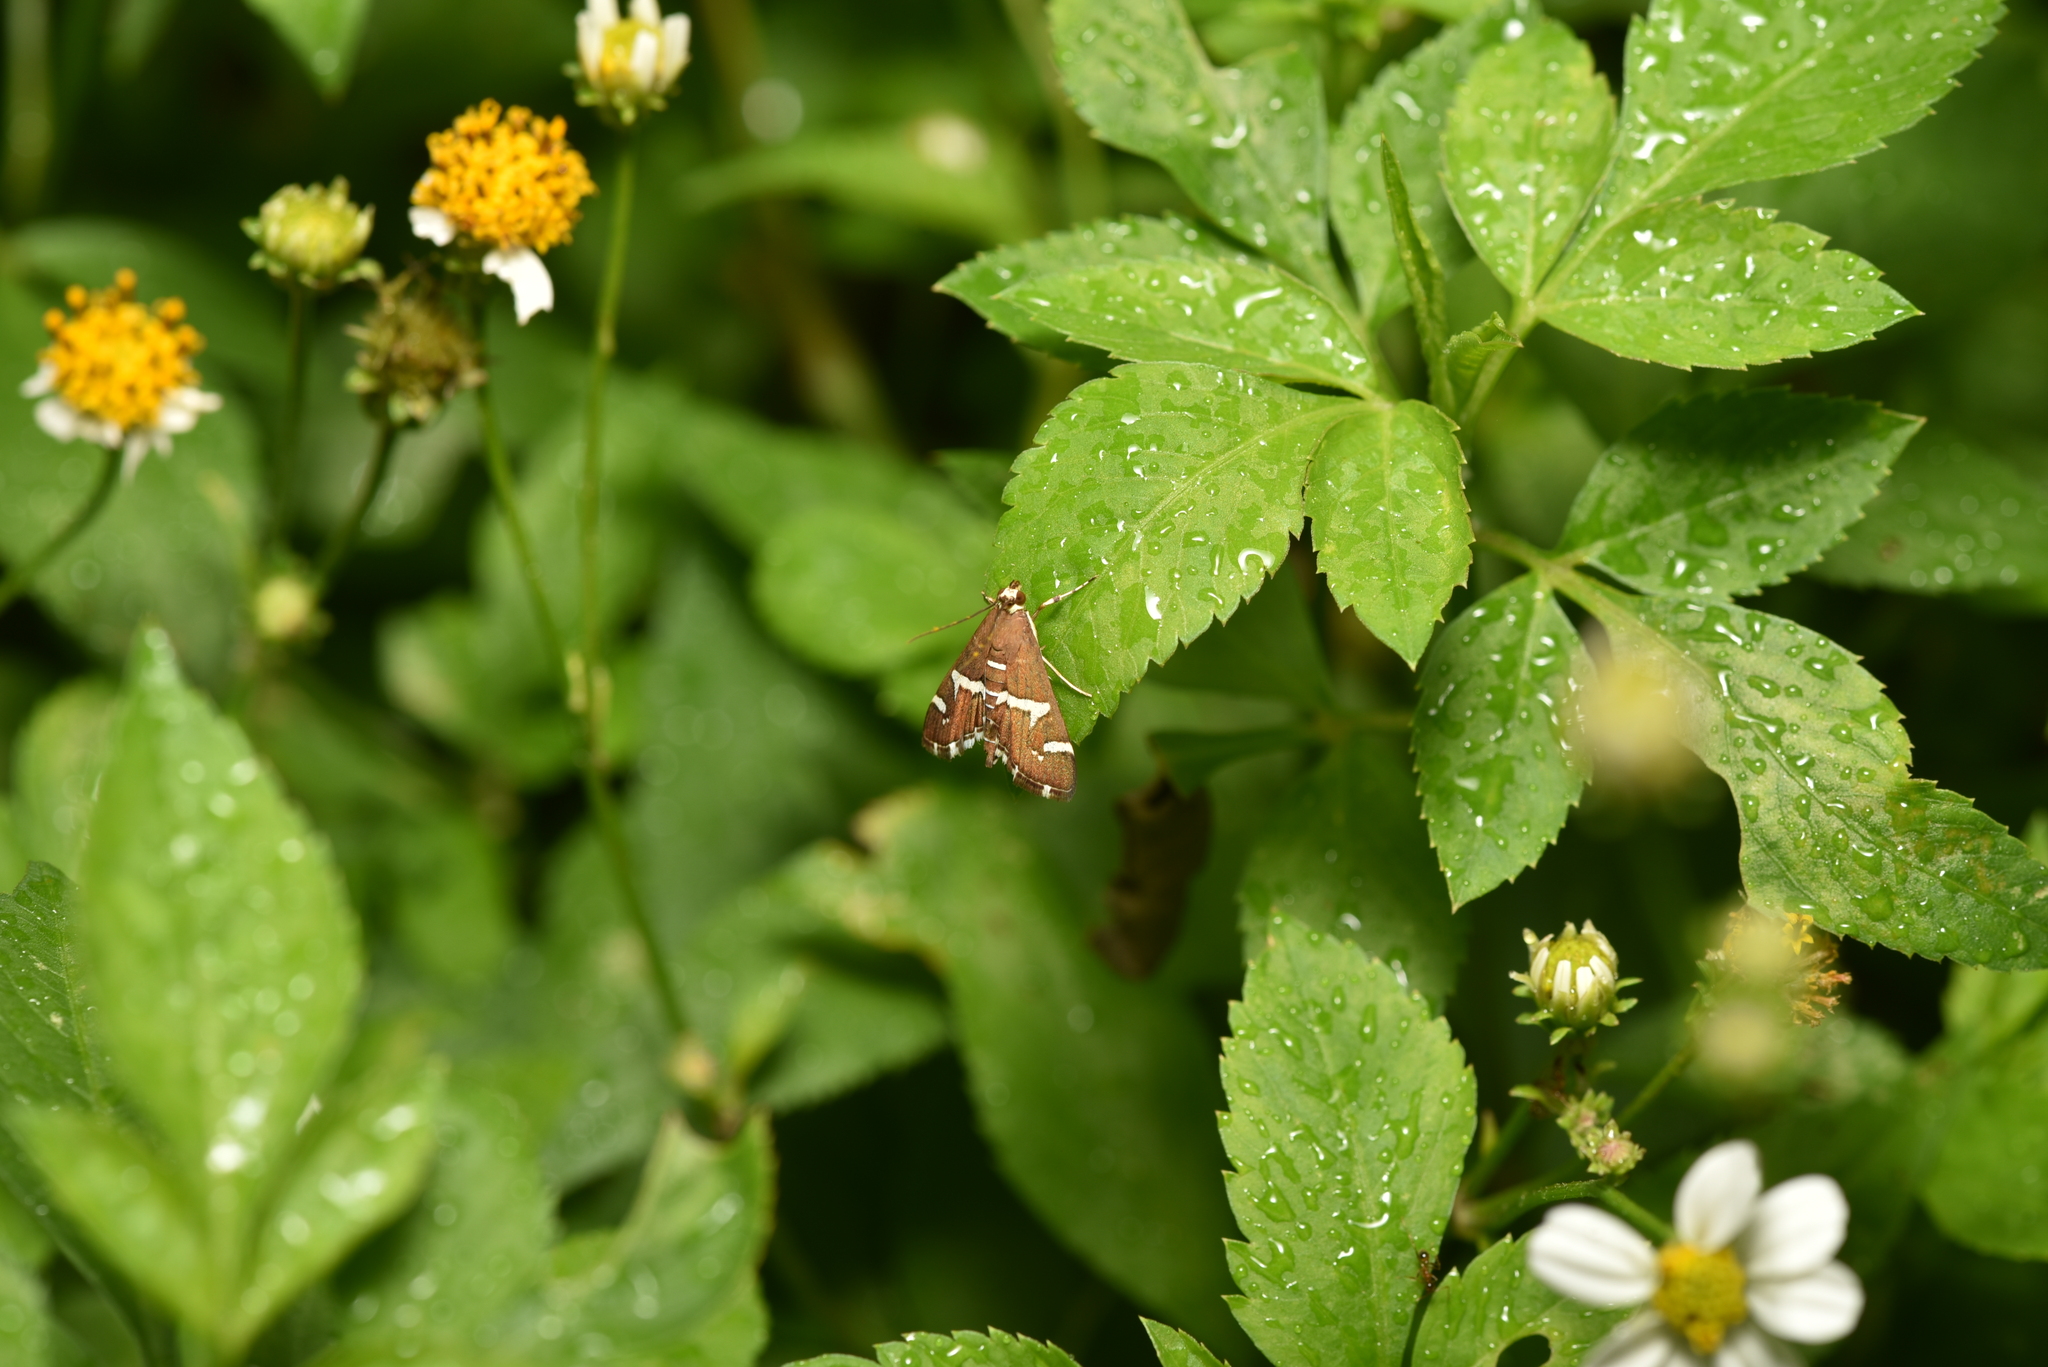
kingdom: Animalia
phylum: Arthropoda
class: Insecta
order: Lepidoptera
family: Crambidae
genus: Spoladea
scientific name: Spoladea recurvalis
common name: Beet webworm moth
